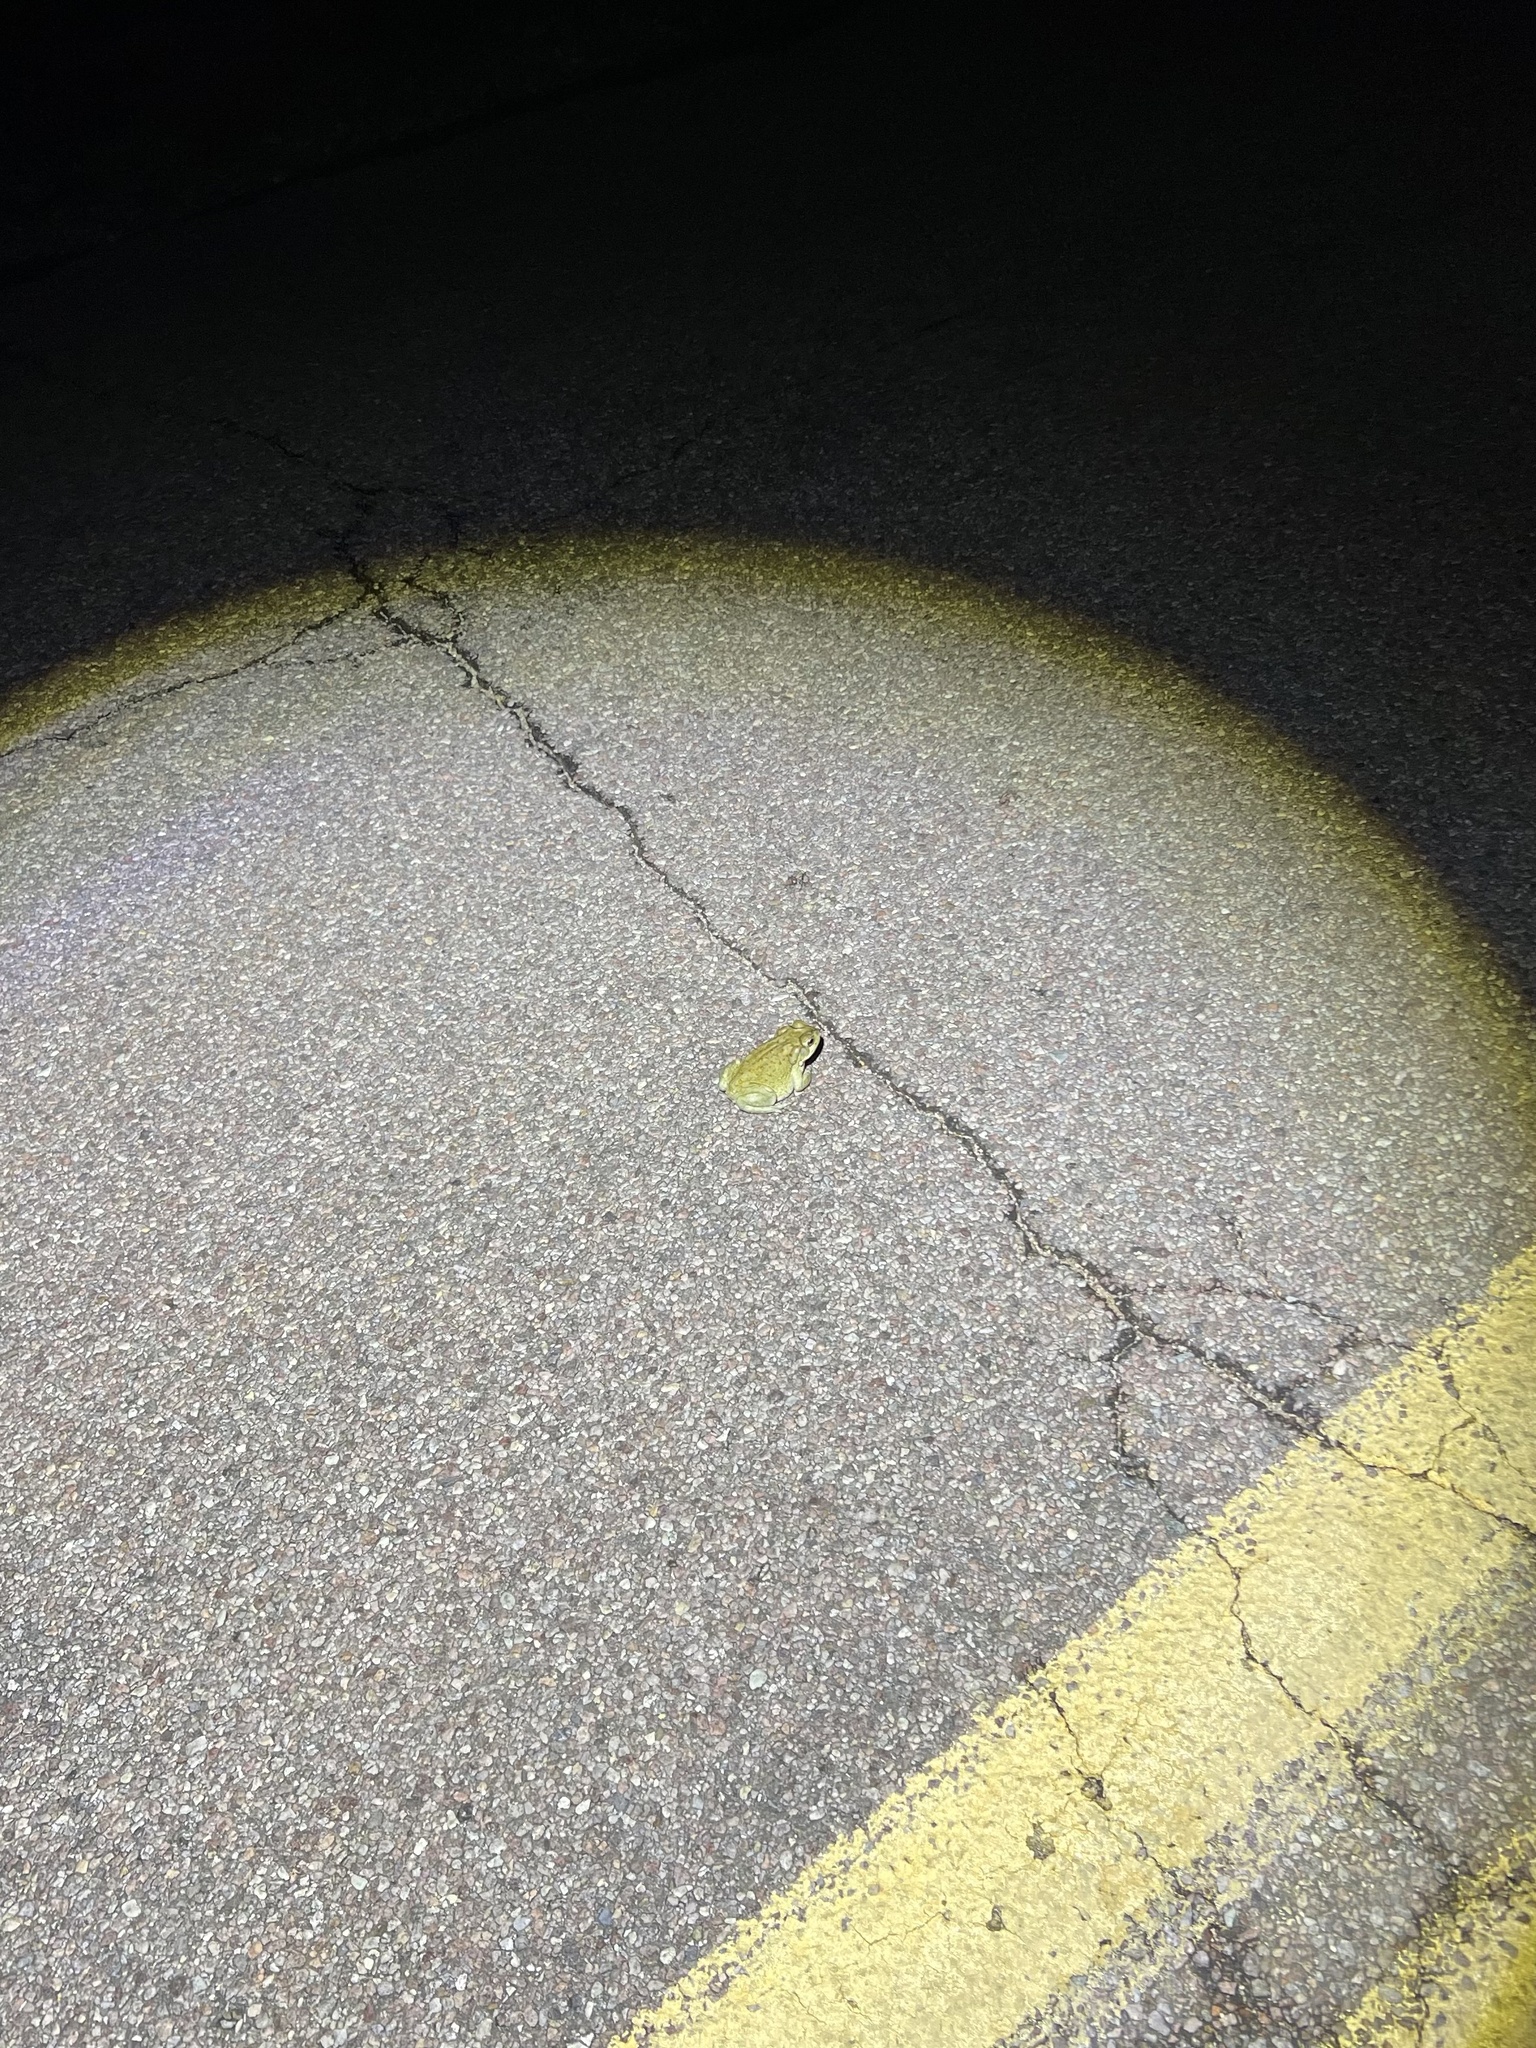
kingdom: Animalia
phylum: Chordata
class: Amphibia
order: Anura
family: Bufonidae
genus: Incilius
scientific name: Incilius alvarius
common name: Sonoran desert toad
